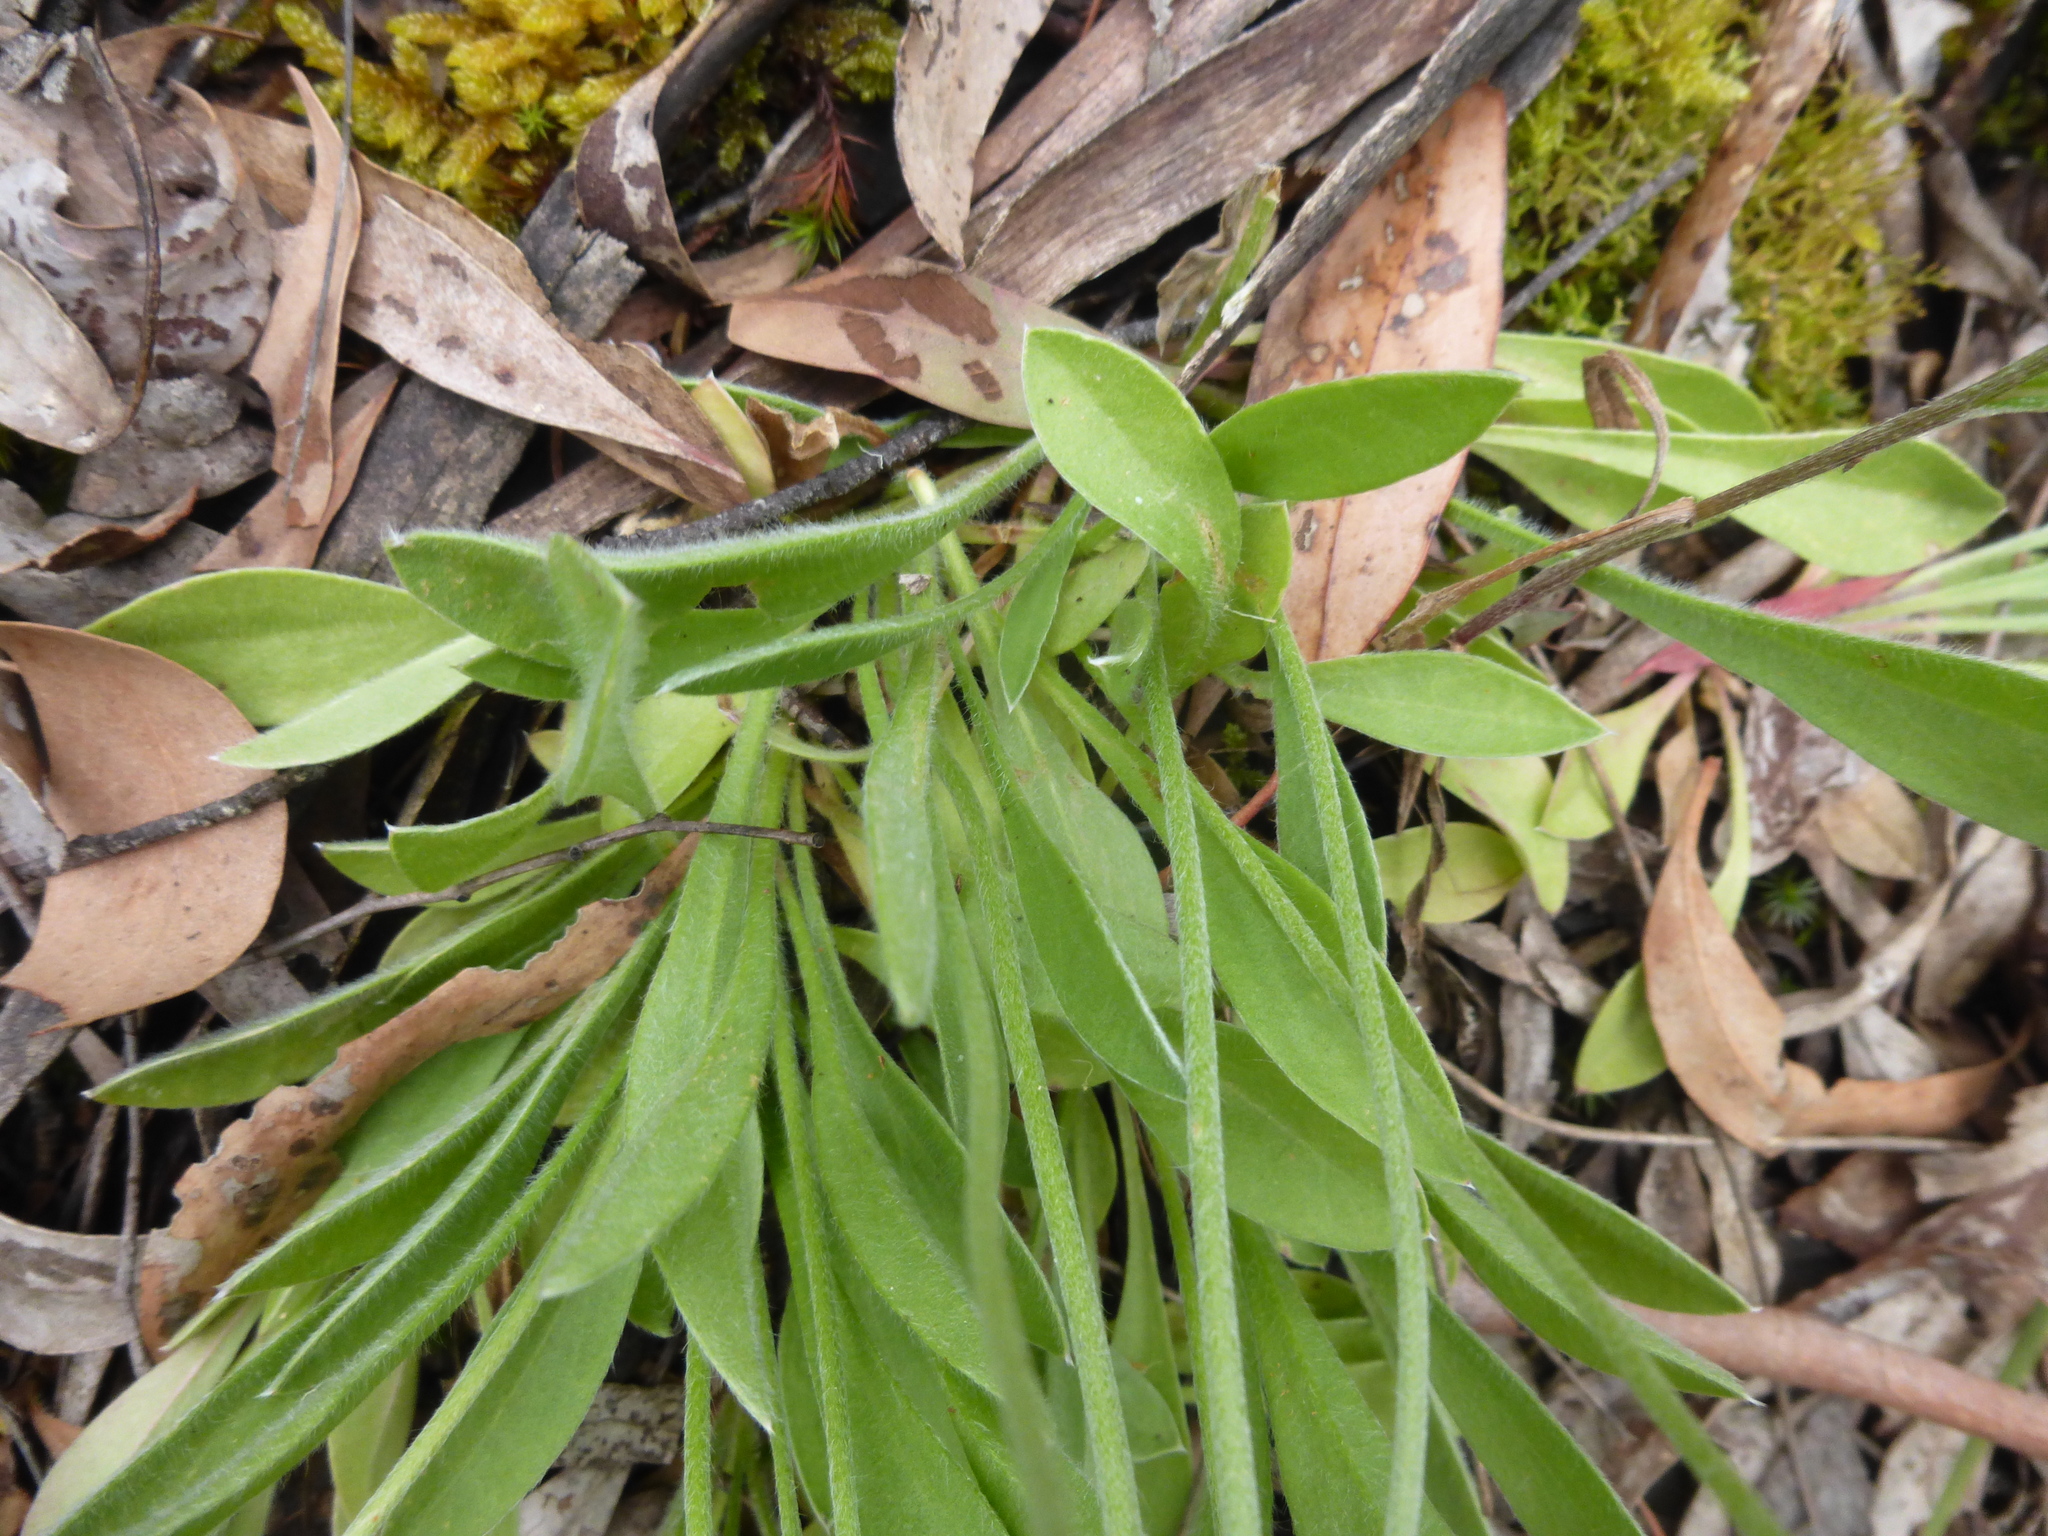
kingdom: Plantae
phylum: Tracheophyta
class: Magnoliopsida
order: Asterales
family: Goodeniaceae
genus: Brunonia
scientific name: Brunonia australis
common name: Blue pincushion
